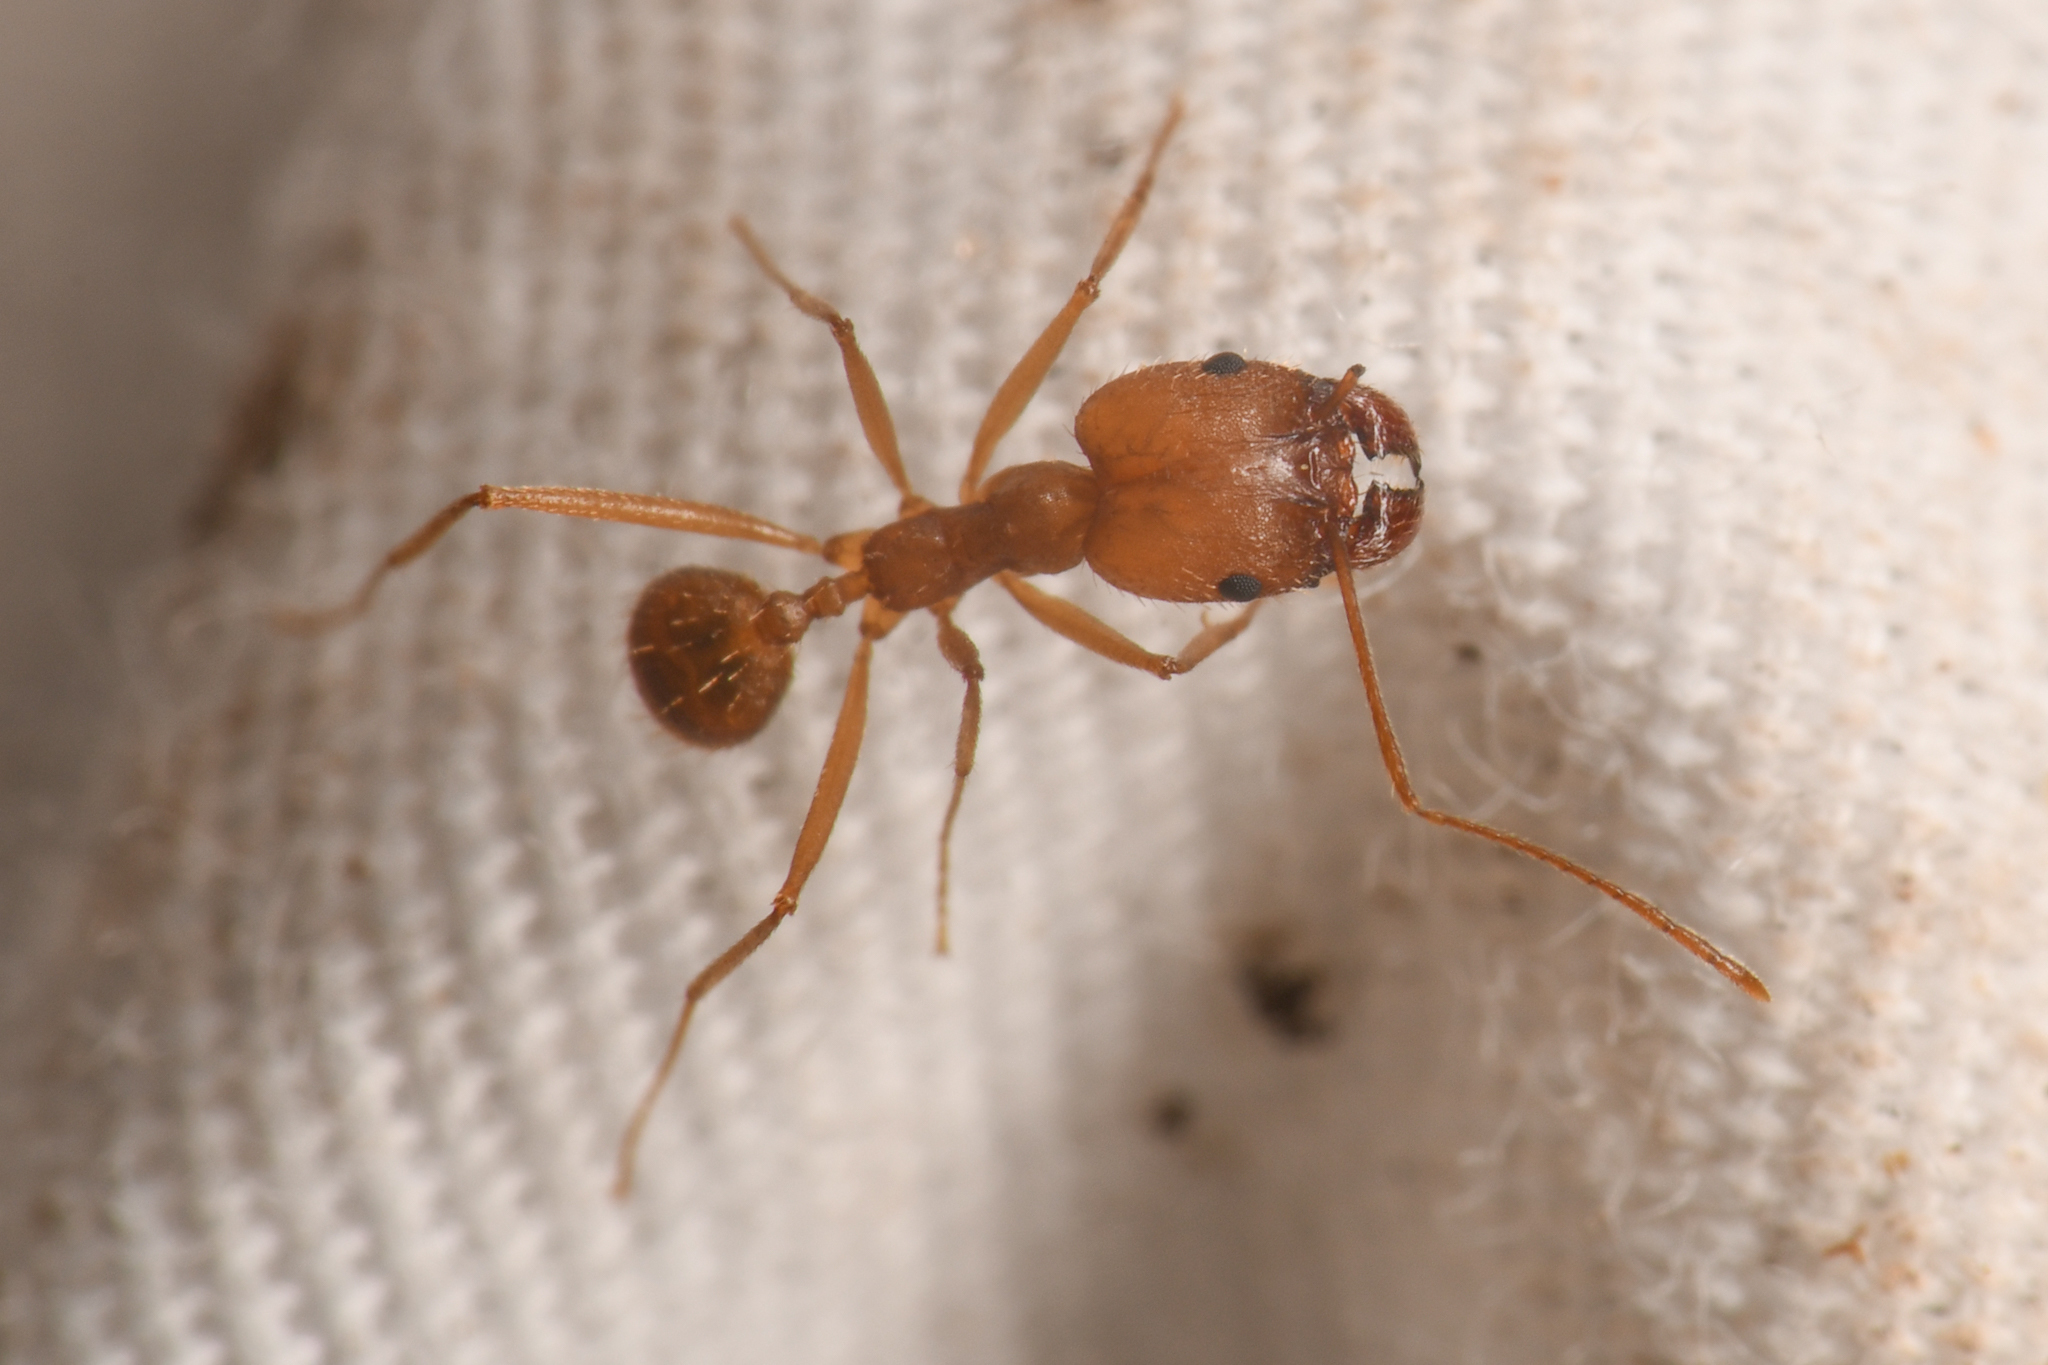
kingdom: Animalia
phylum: Arthropoda
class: Insecta
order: Hymenoptera
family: Formicidae
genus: Pheidole
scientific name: Pheidole vistana
